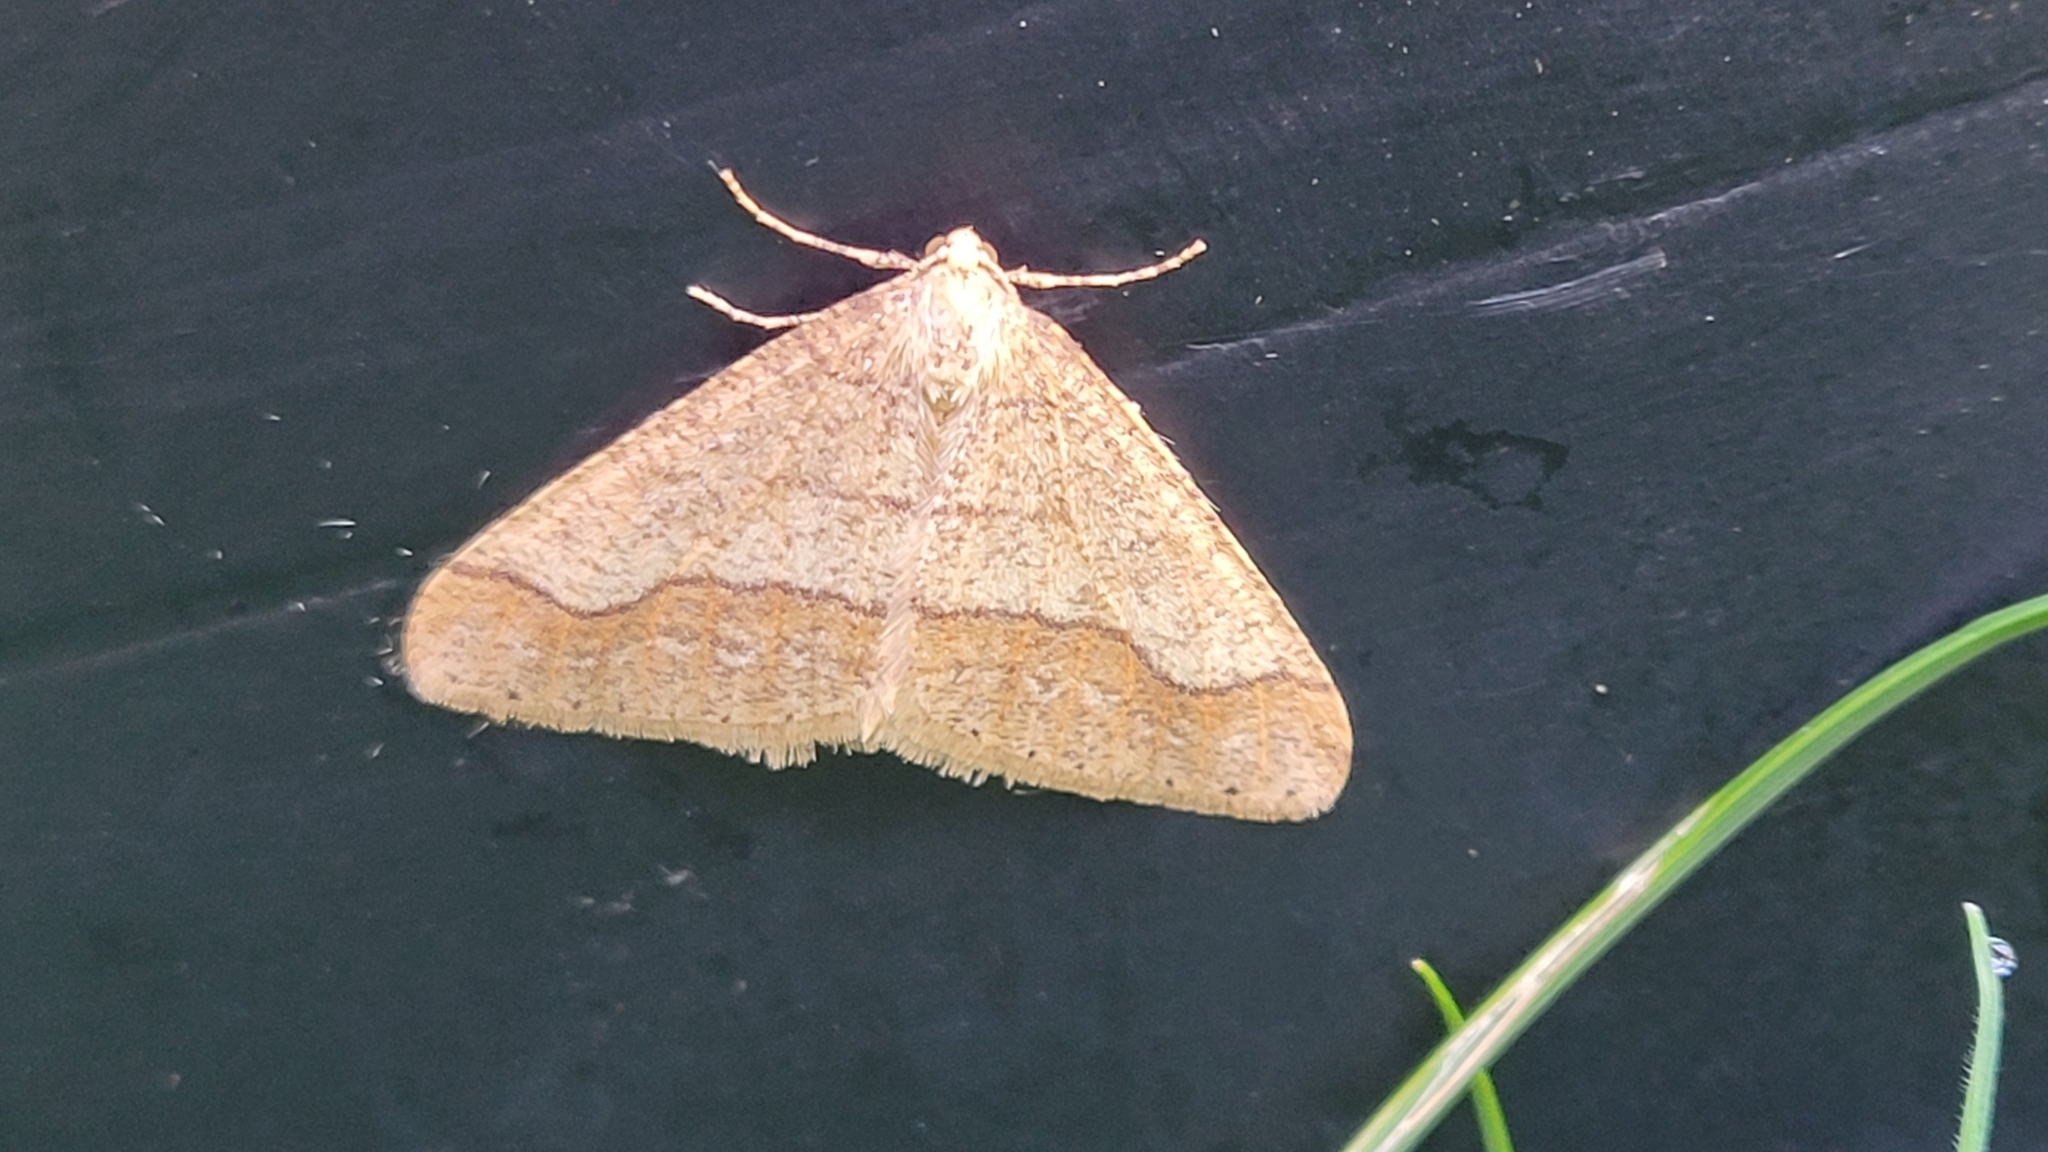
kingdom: Animalia
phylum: Arthropoda
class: Insecta
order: Lepidoptera
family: Geometridae
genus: Agriopis
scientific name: Agriopis marginaria
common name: Dotted border
